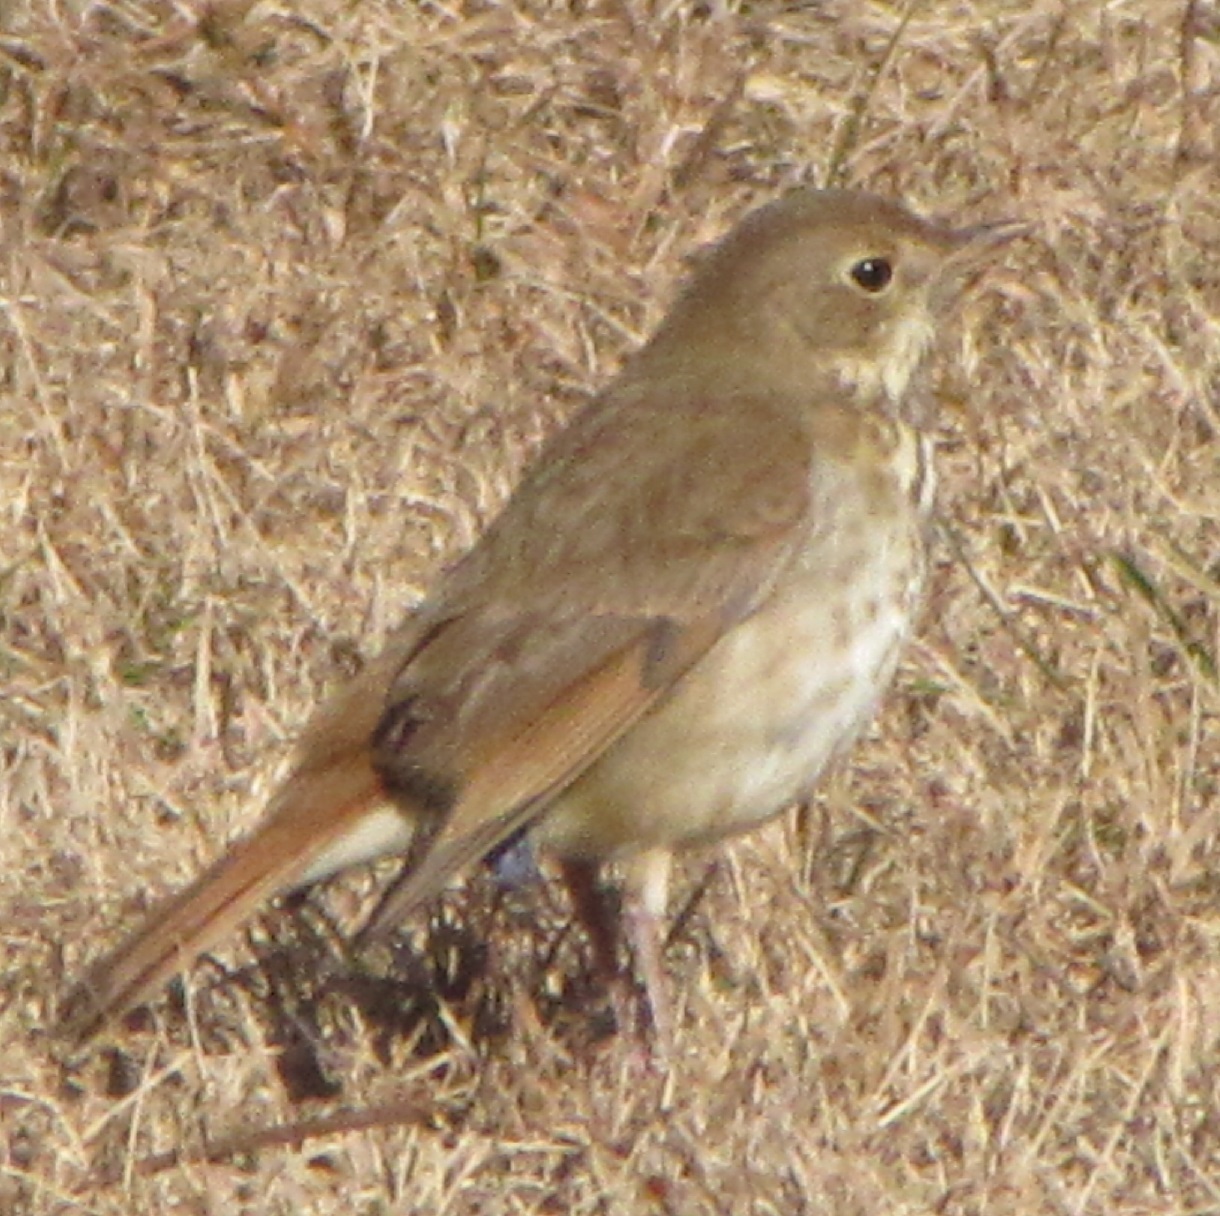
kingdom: Animalia
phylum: Chordata
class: Aves
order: Passeriformes
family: Turdidae
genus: Catharus
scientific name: Catharus guttatus
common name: Hermit thrush
